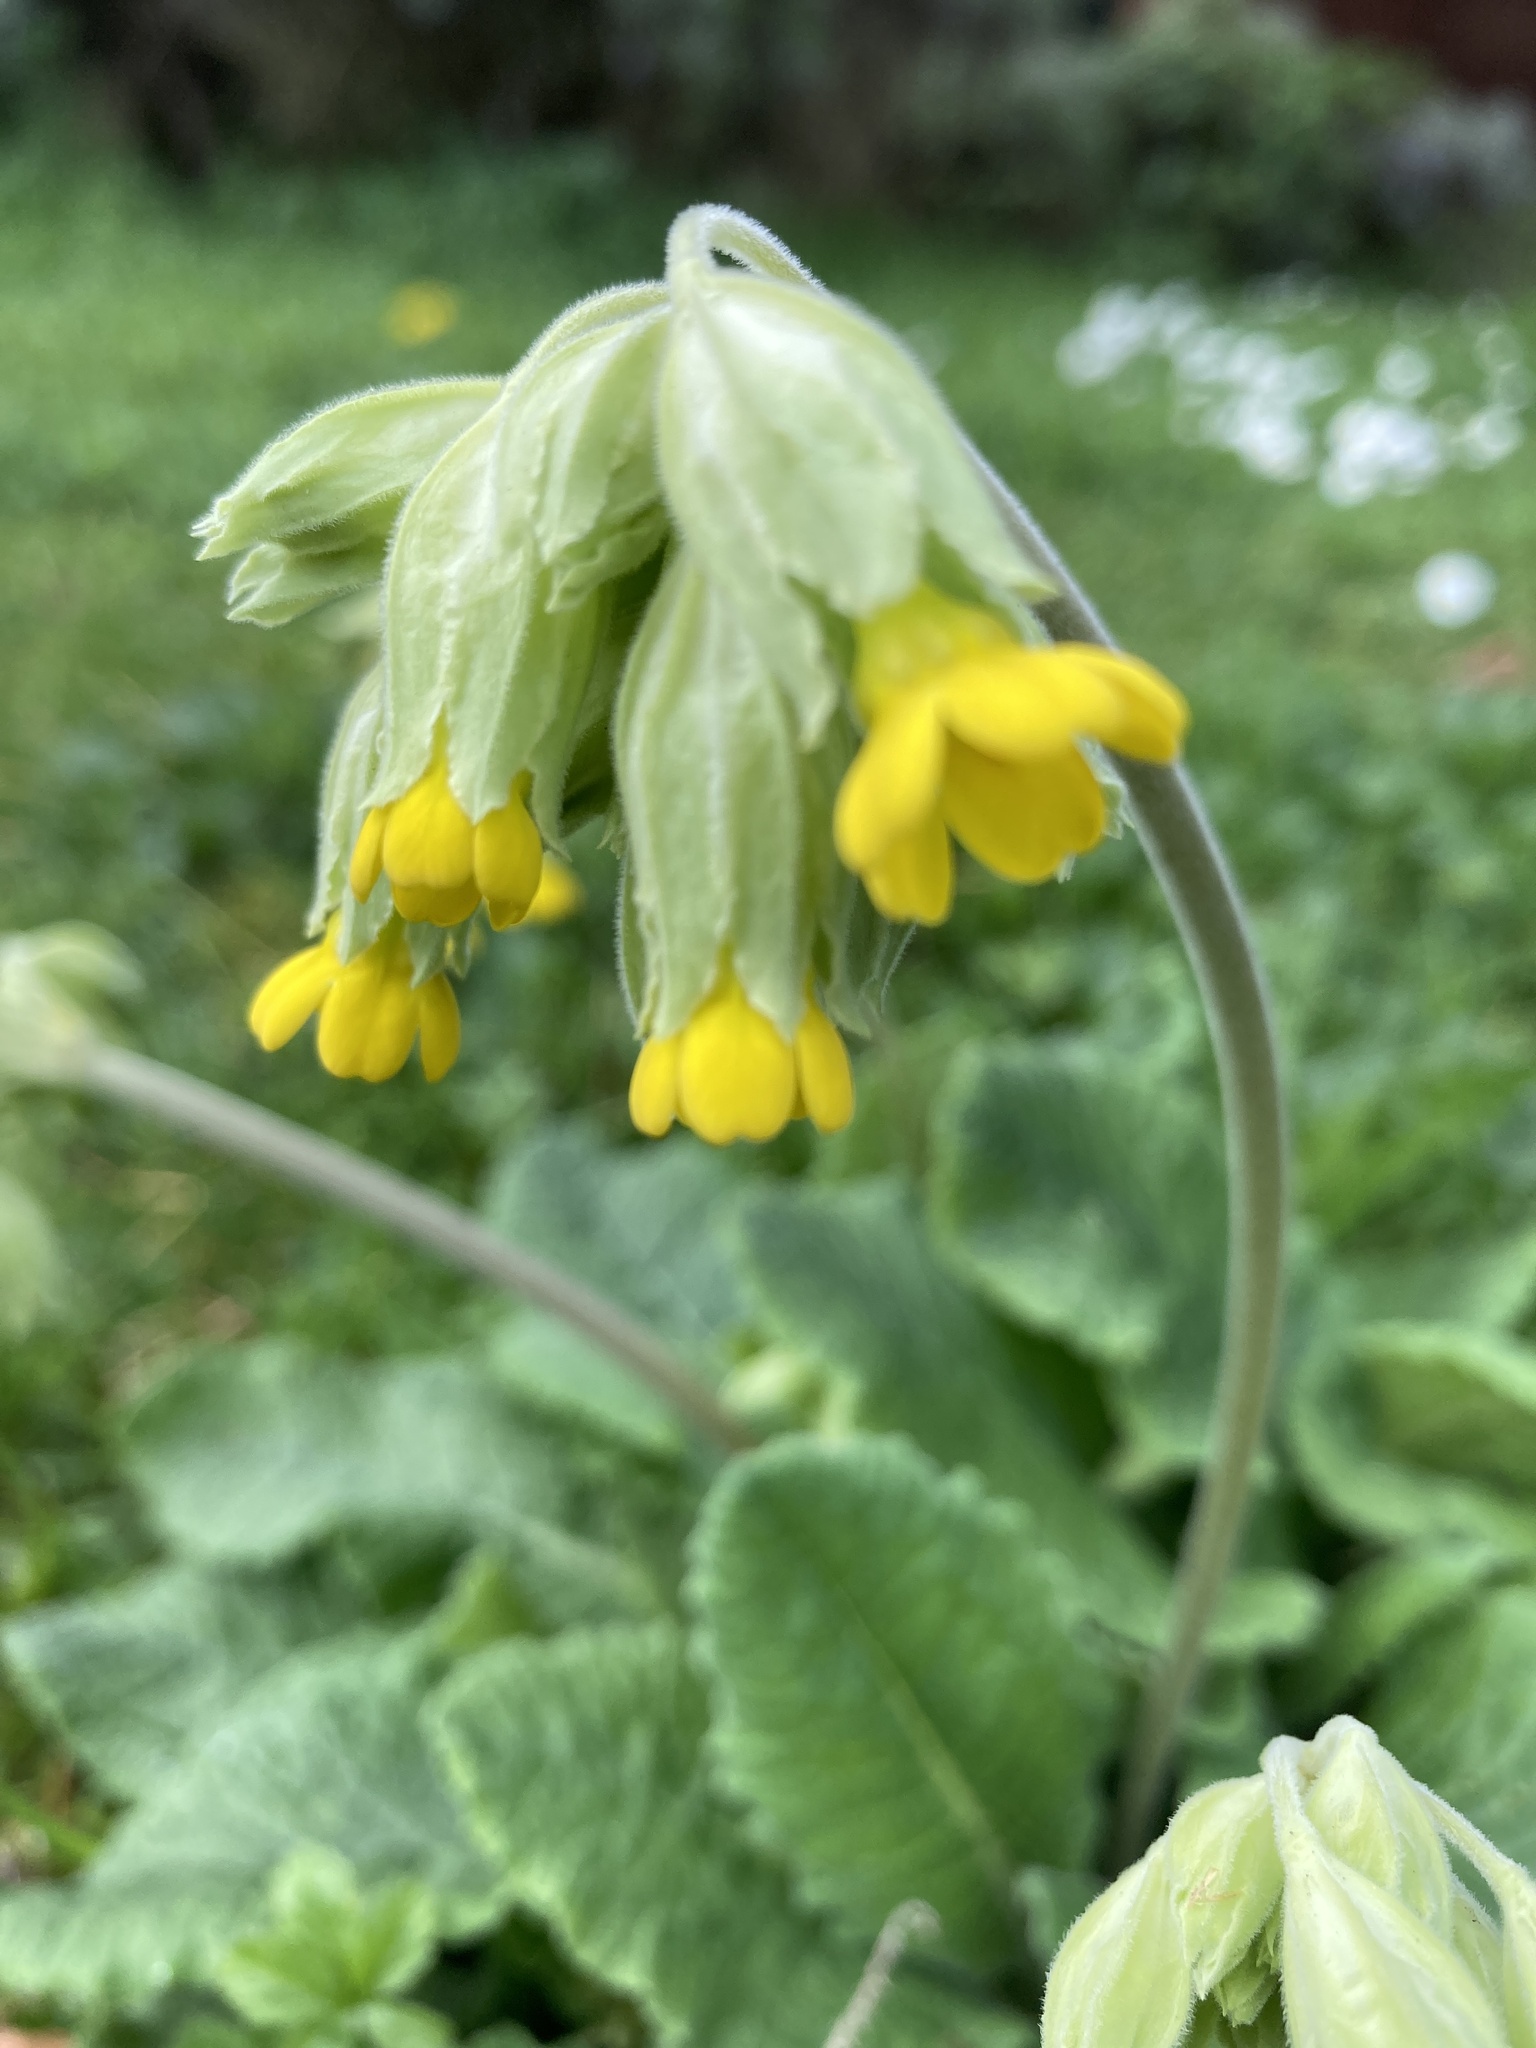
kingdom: Plantae
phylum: Tracheophyta
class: Magnoliopsida
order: Ericales
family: Primulaceae
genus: Primula
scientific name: Primula veris
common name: Cowslip
